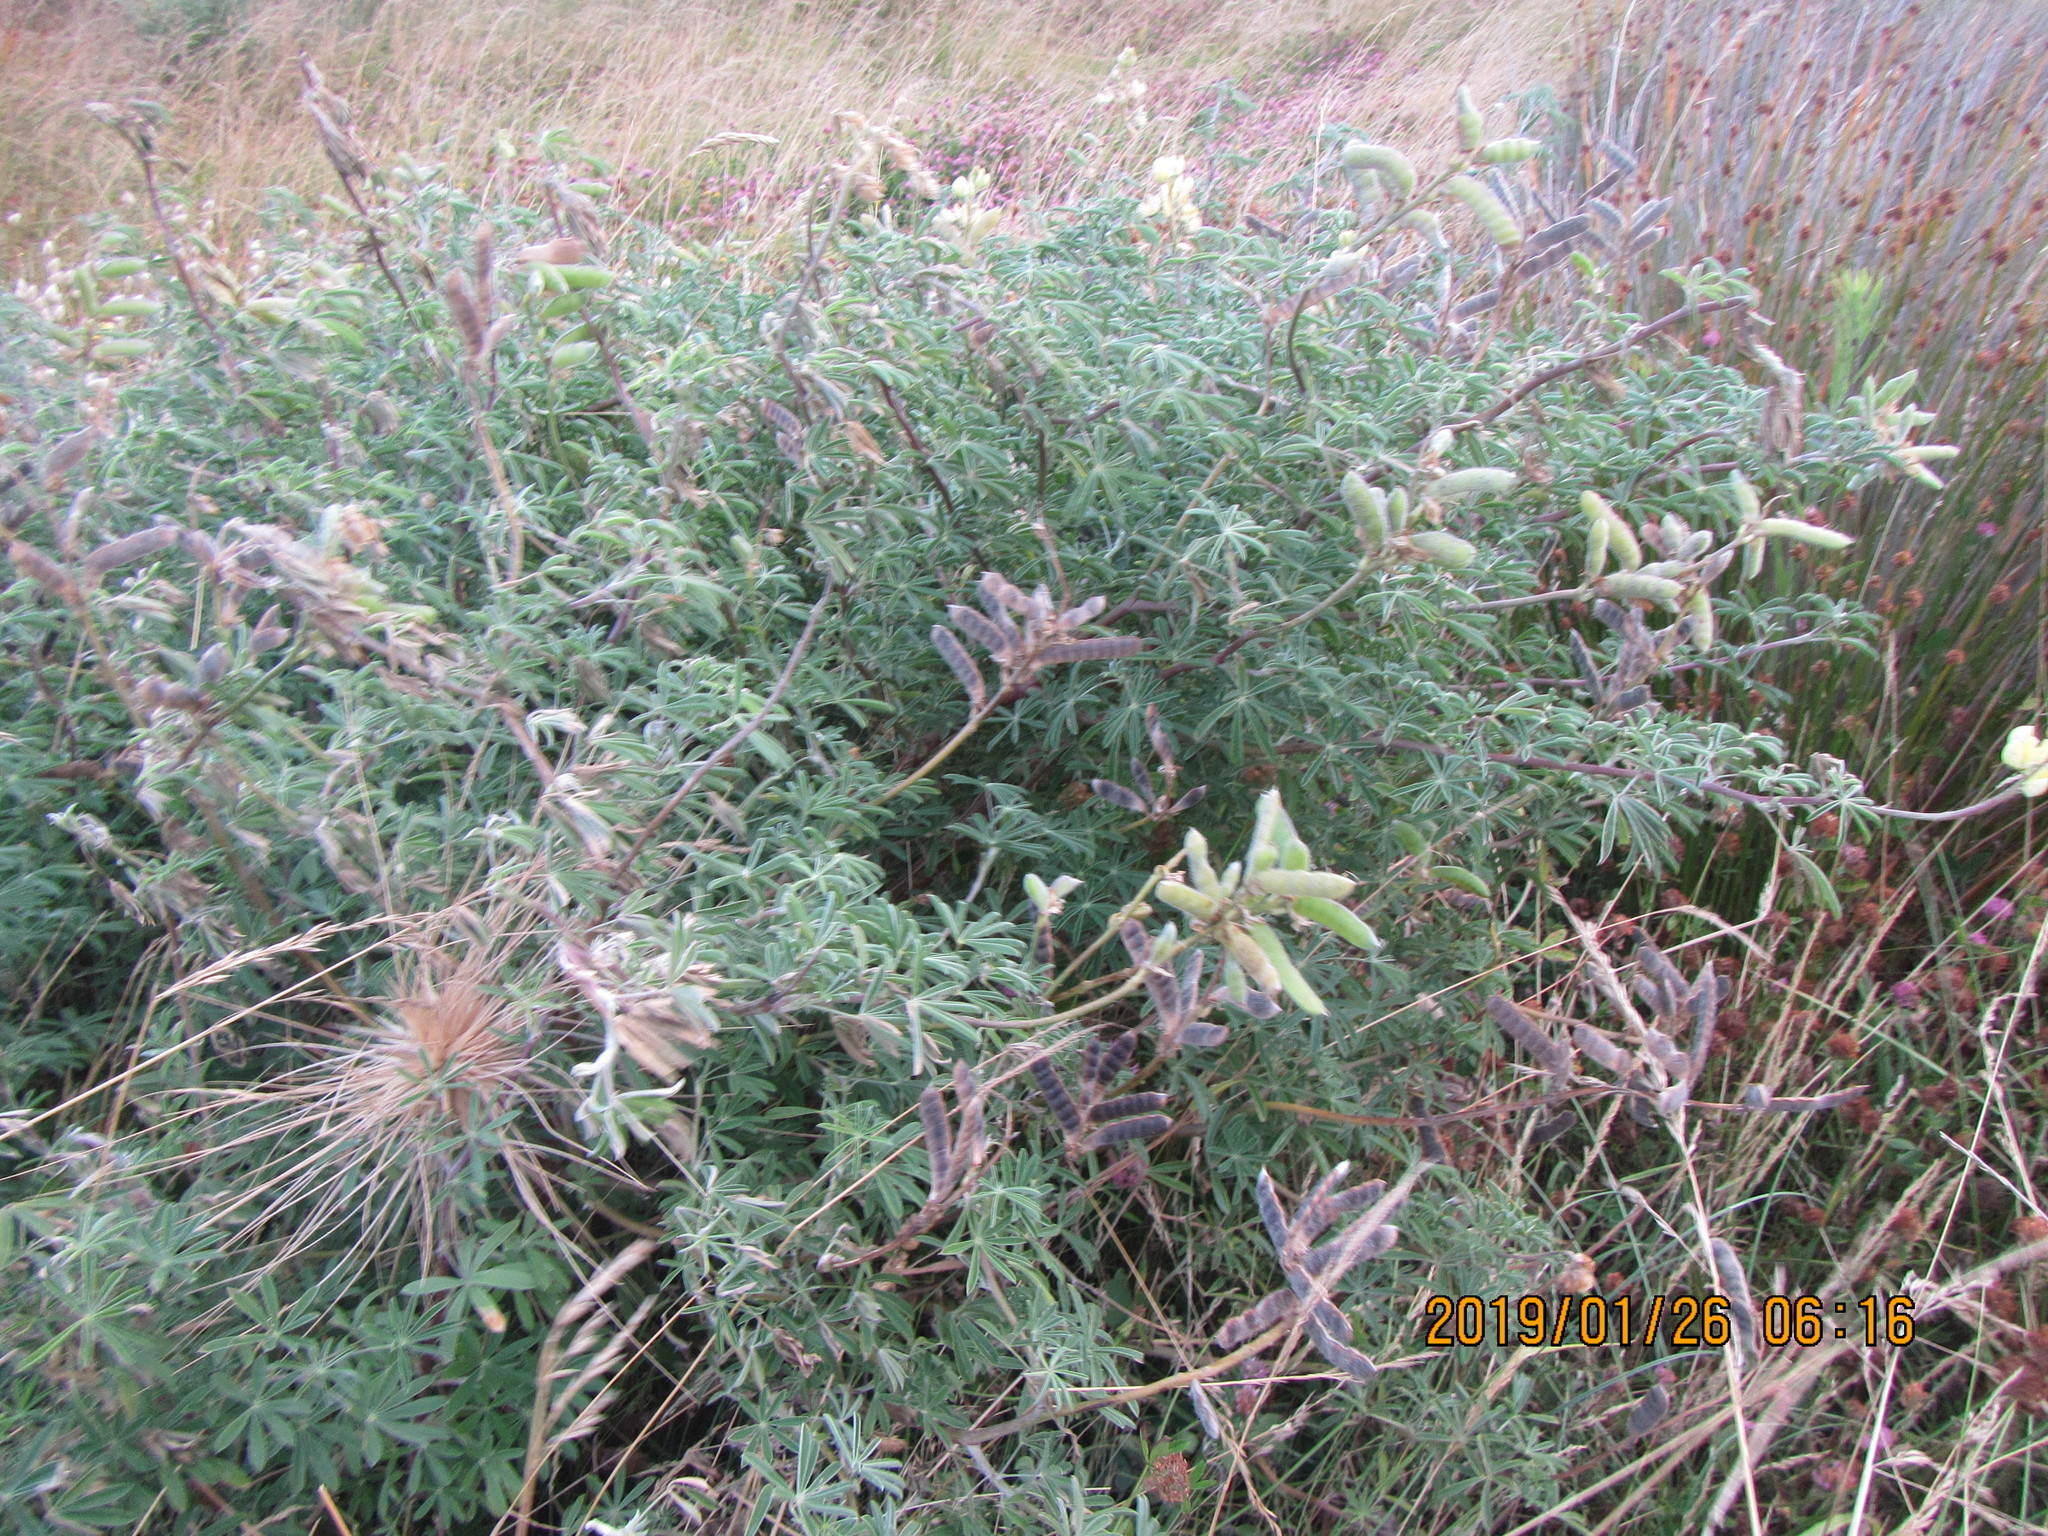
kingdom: Plantae
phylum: Tracheophyta
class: Magnoliopsida
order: Fabales
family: Fabaceae
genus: Lupinus
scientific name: Lupinus arboreus
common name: Yellow bush lupine
